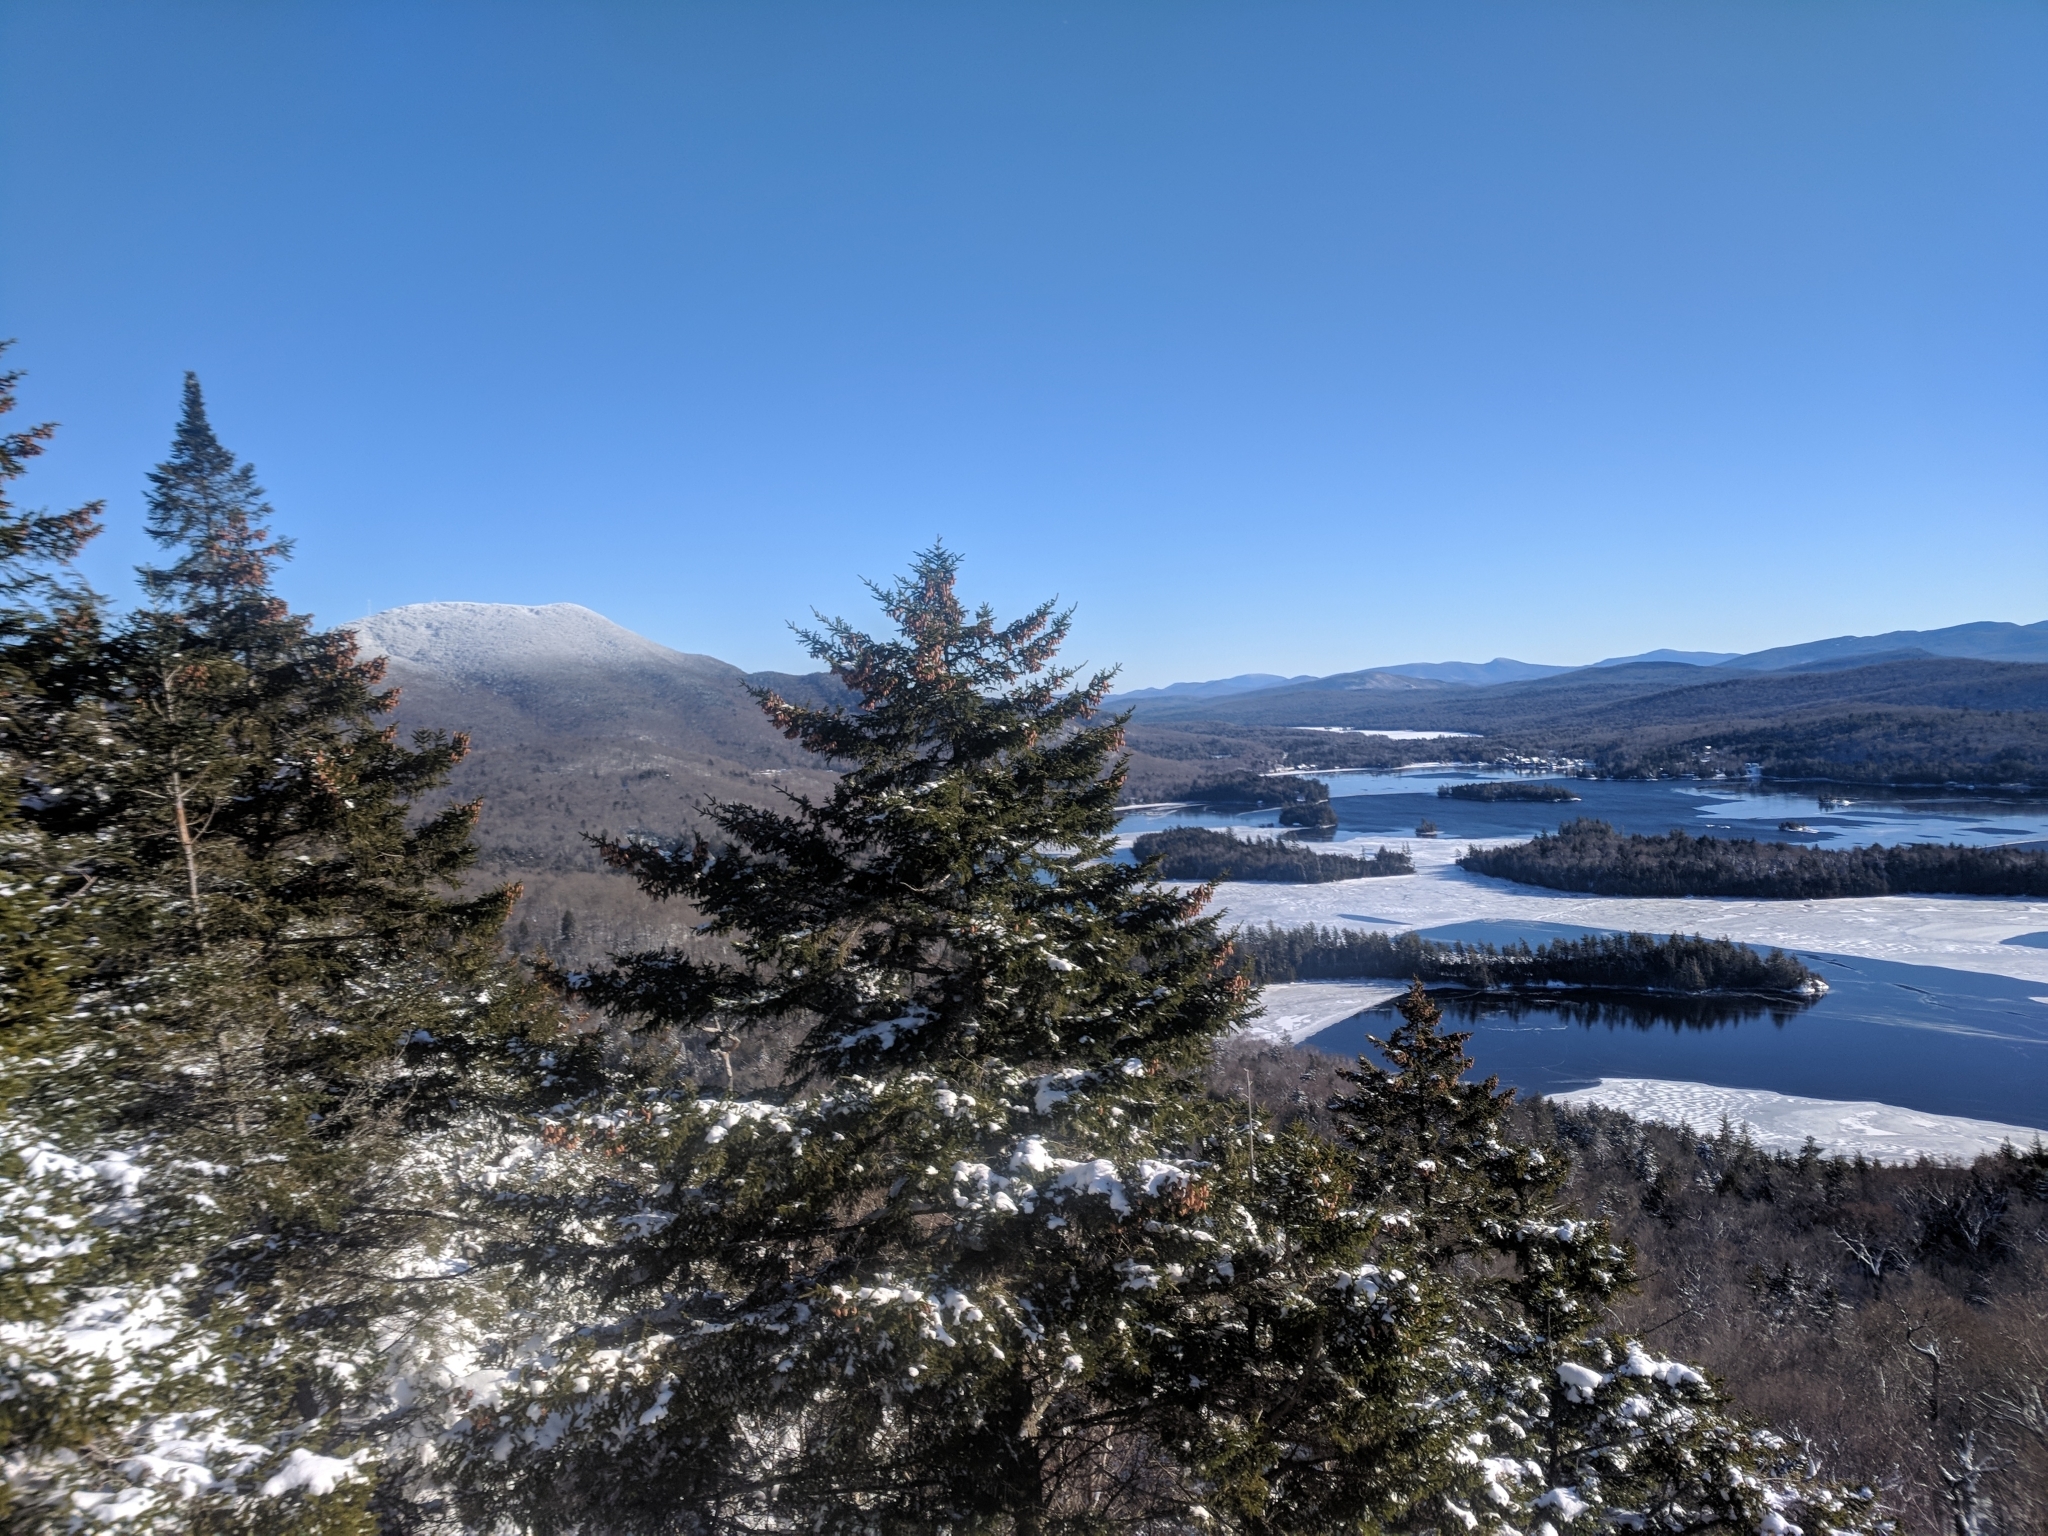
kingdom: Plantae
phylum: Tracheophyta
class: Pinopsida
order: Pinales
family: Pinaceae
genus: Picea
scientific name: Picea rubens
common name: Red spruce
